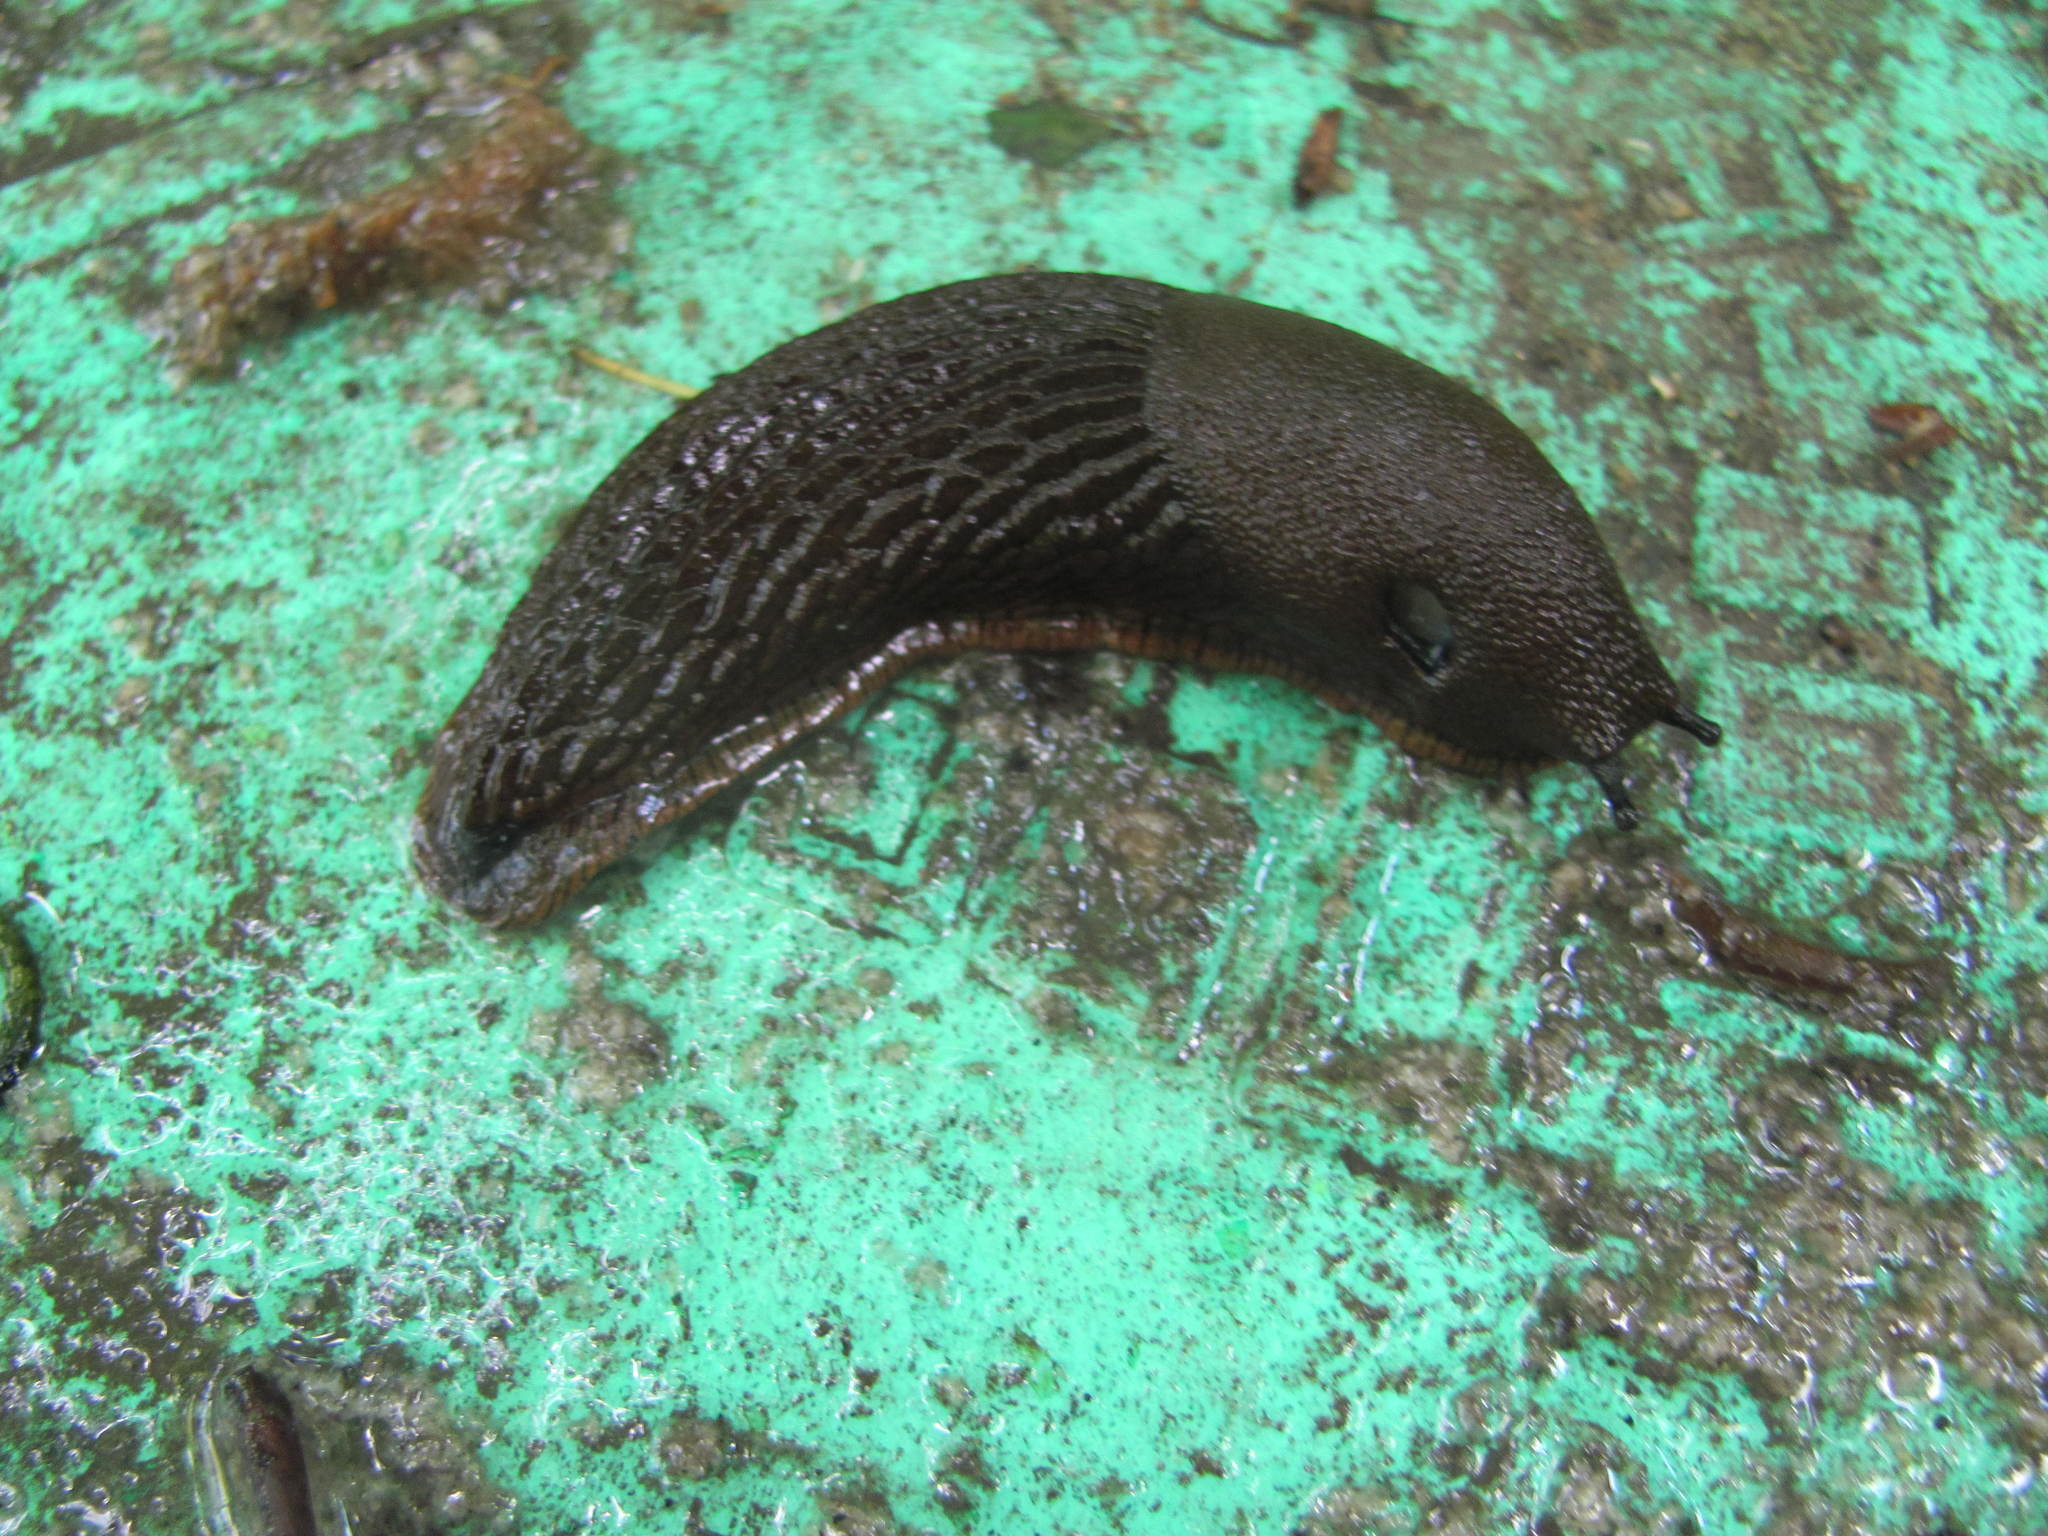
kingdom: Animalia
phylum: Mollusca
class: Gastropoda
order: Stylommatophora
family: Arionidae
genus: Arion
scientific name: Arion
